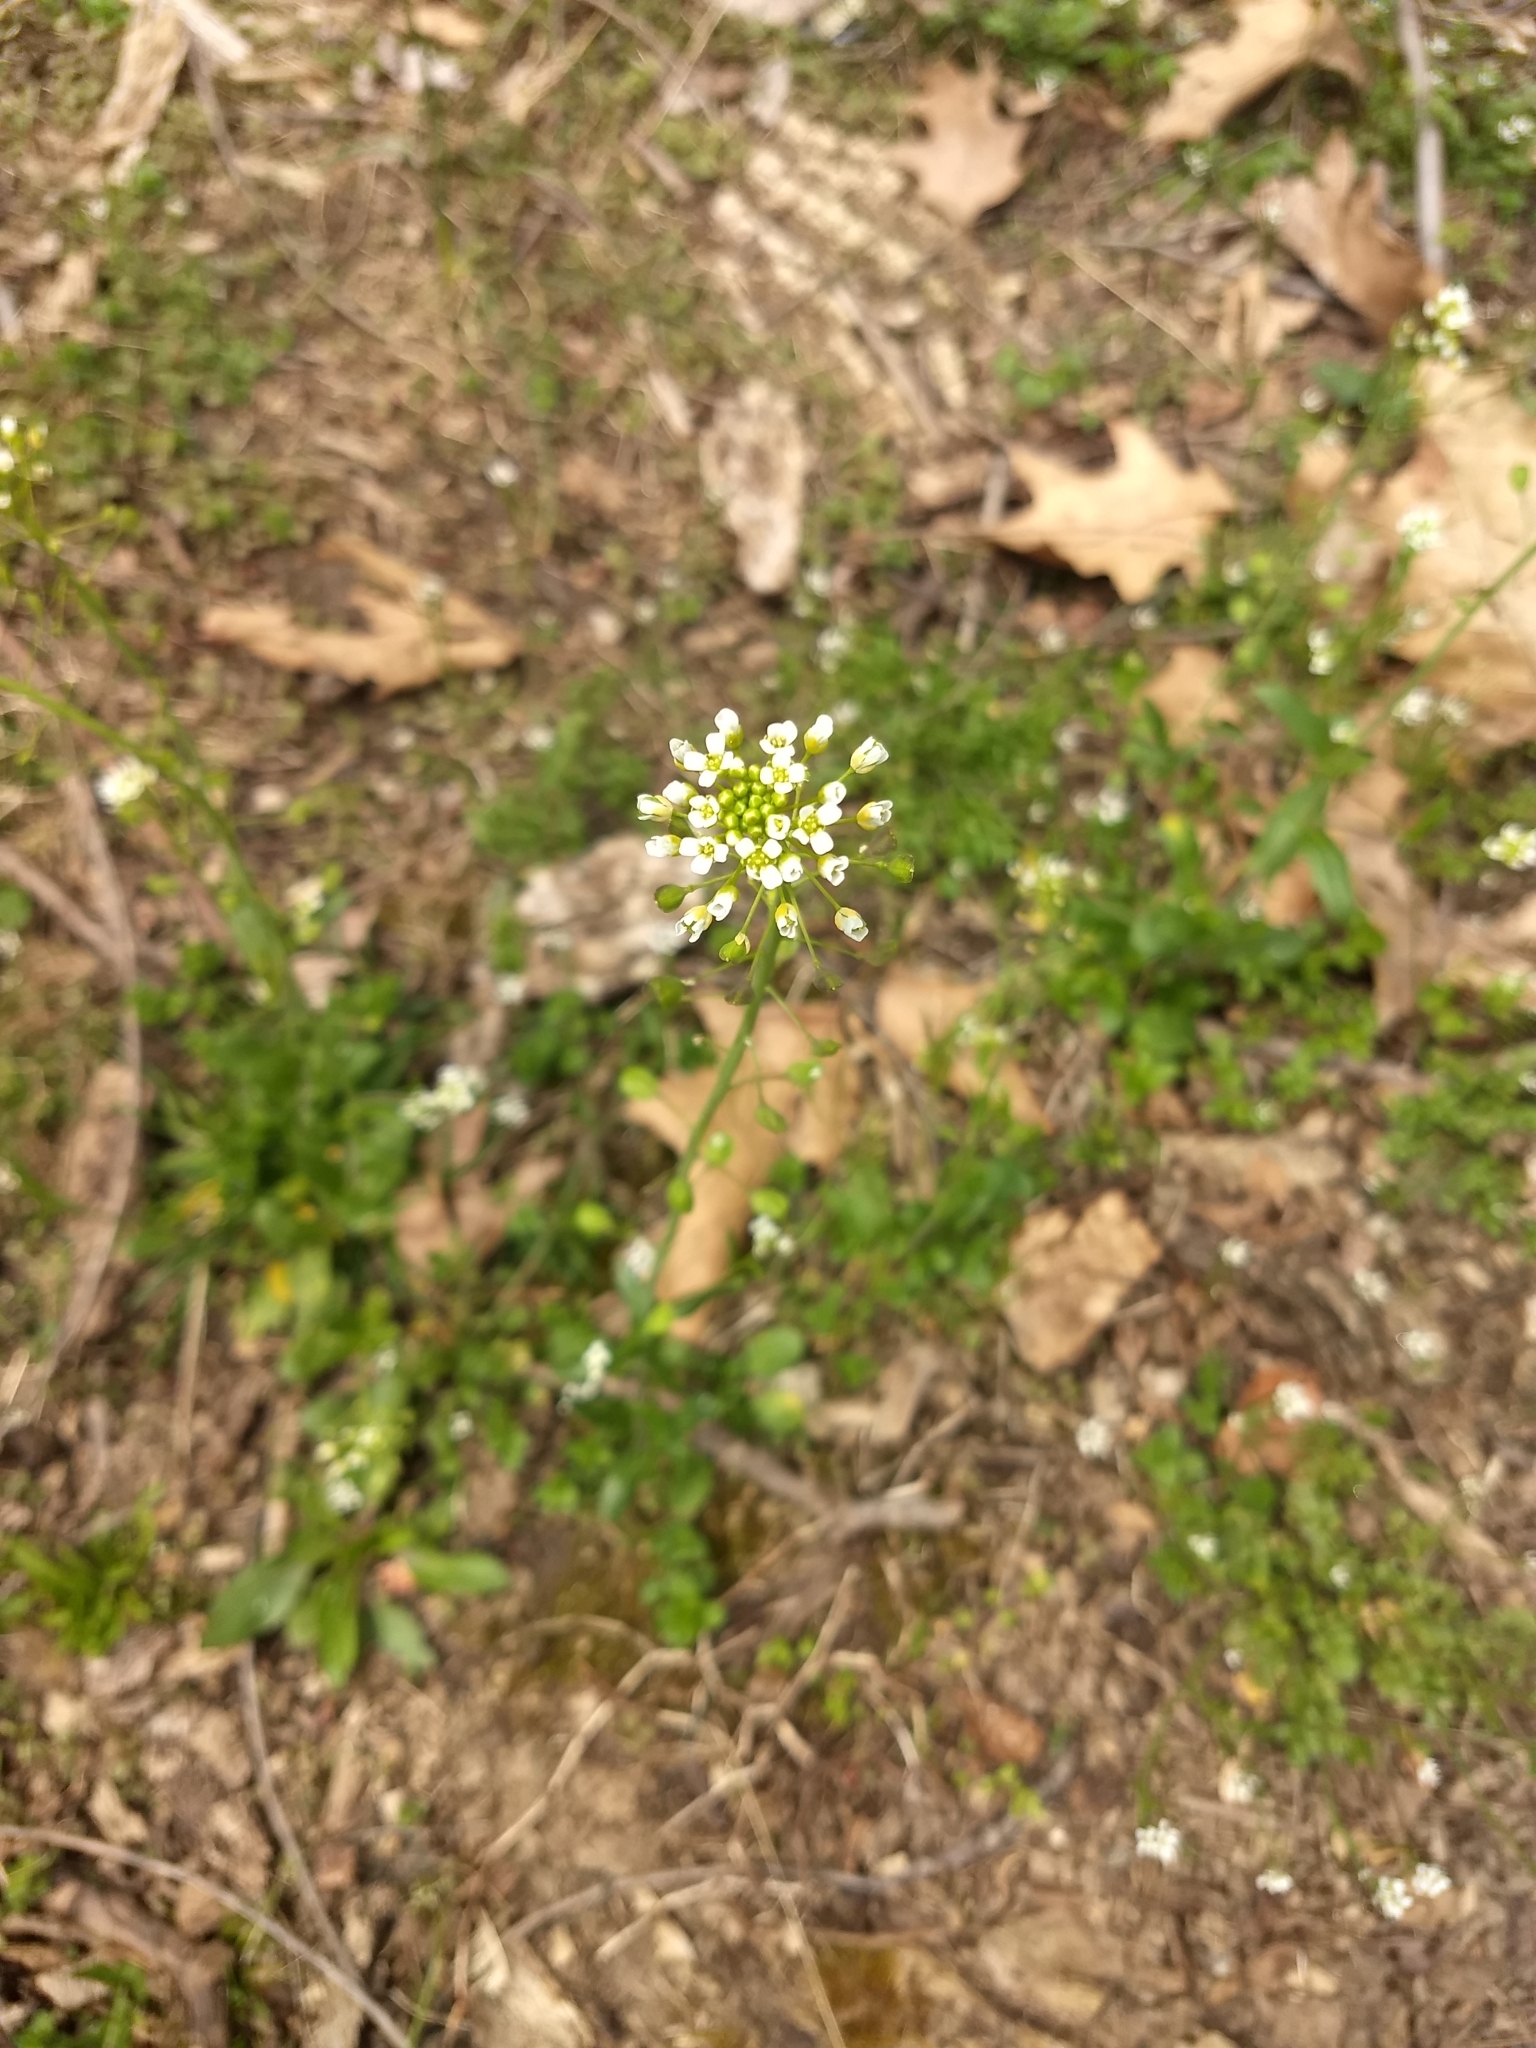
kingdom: Plantae
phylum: Tracheophyta
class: Magnoliopsida
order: Brassicales
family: Brassicaceae
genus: Mummenhoffia
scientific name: Mummenhoffia alliacea
